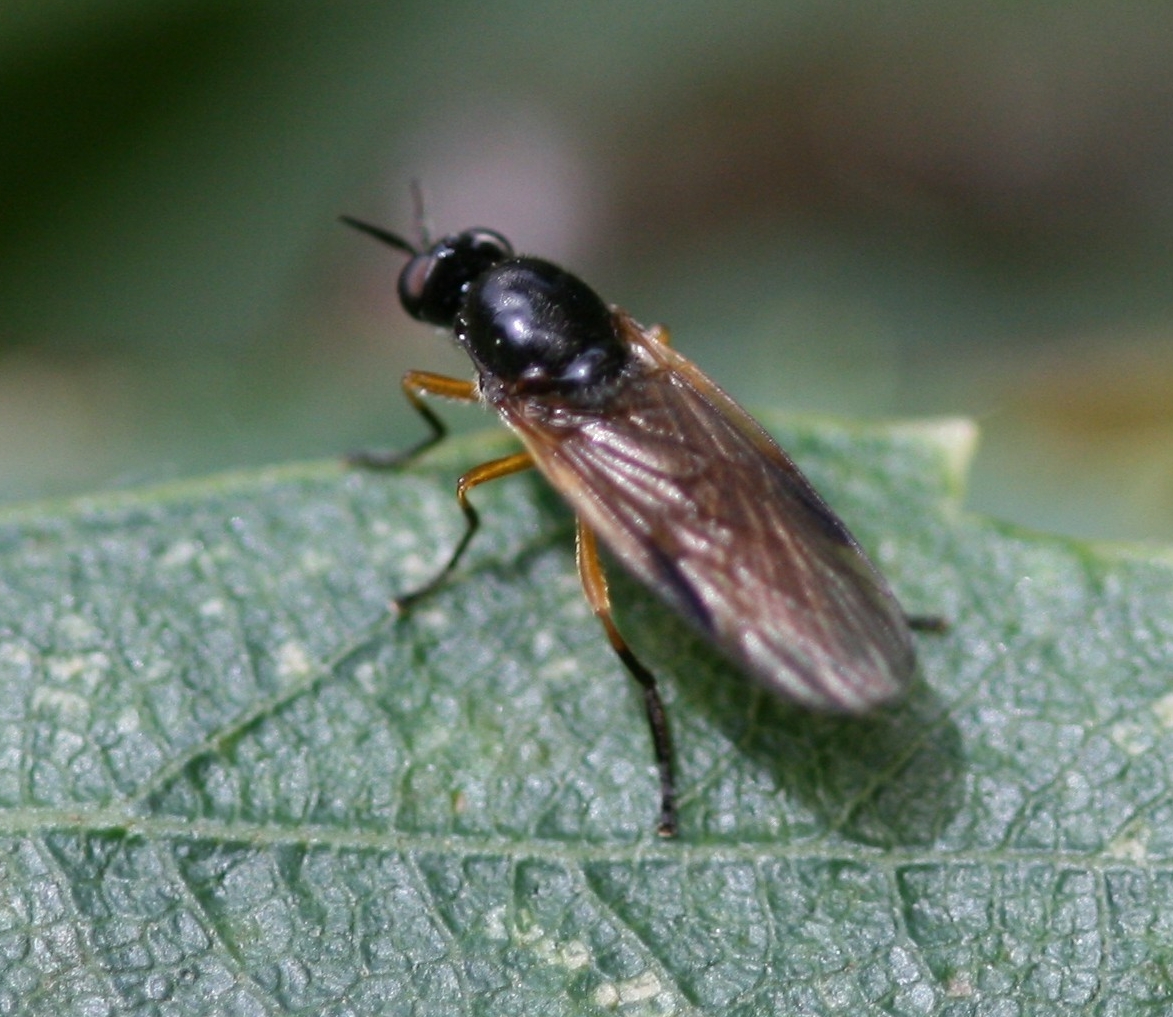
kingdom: Animalia
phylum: Arthropoda
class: Insecta
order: Diptera
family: Stratiomyidae
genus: Beris
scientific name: Beris vallata
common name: Common orange legionnaire
